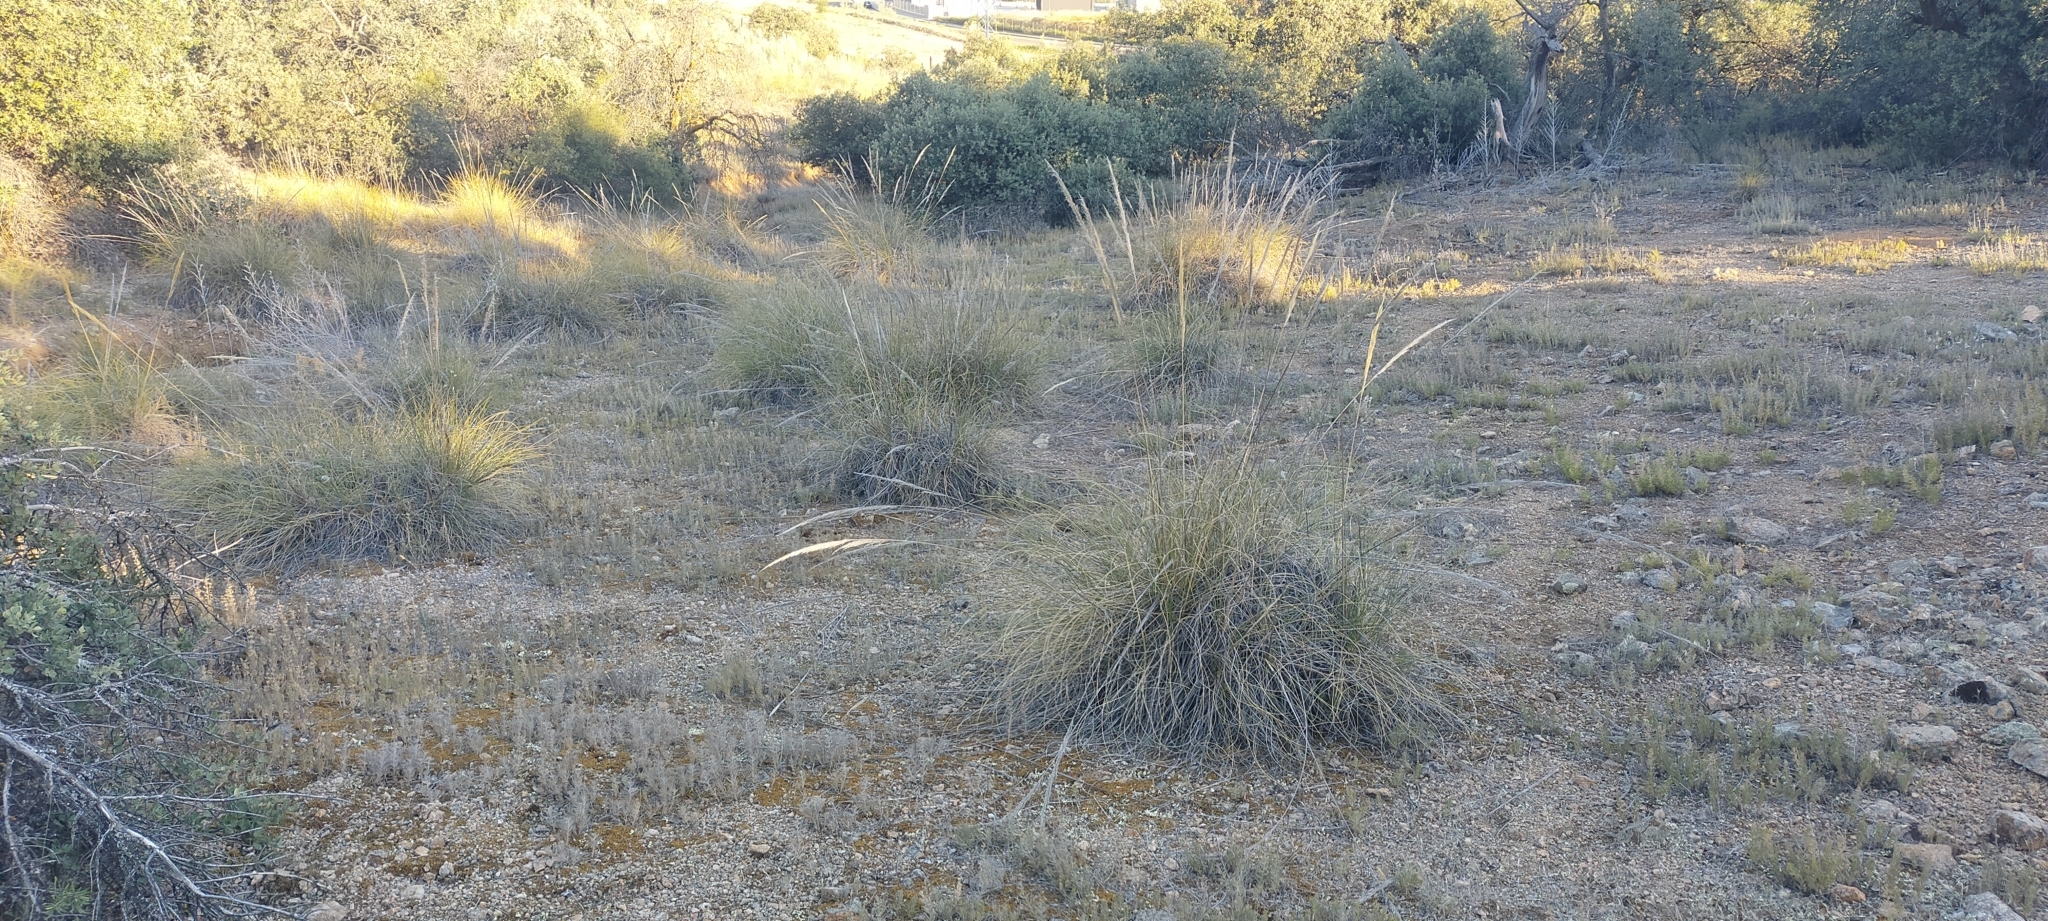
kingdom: Plantae
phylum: Tracheophyta
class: Liliopsida
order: Poales
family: Poaceae
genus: Macrochloa
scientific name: Macrochloa tenacissima
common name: Alfa grass
